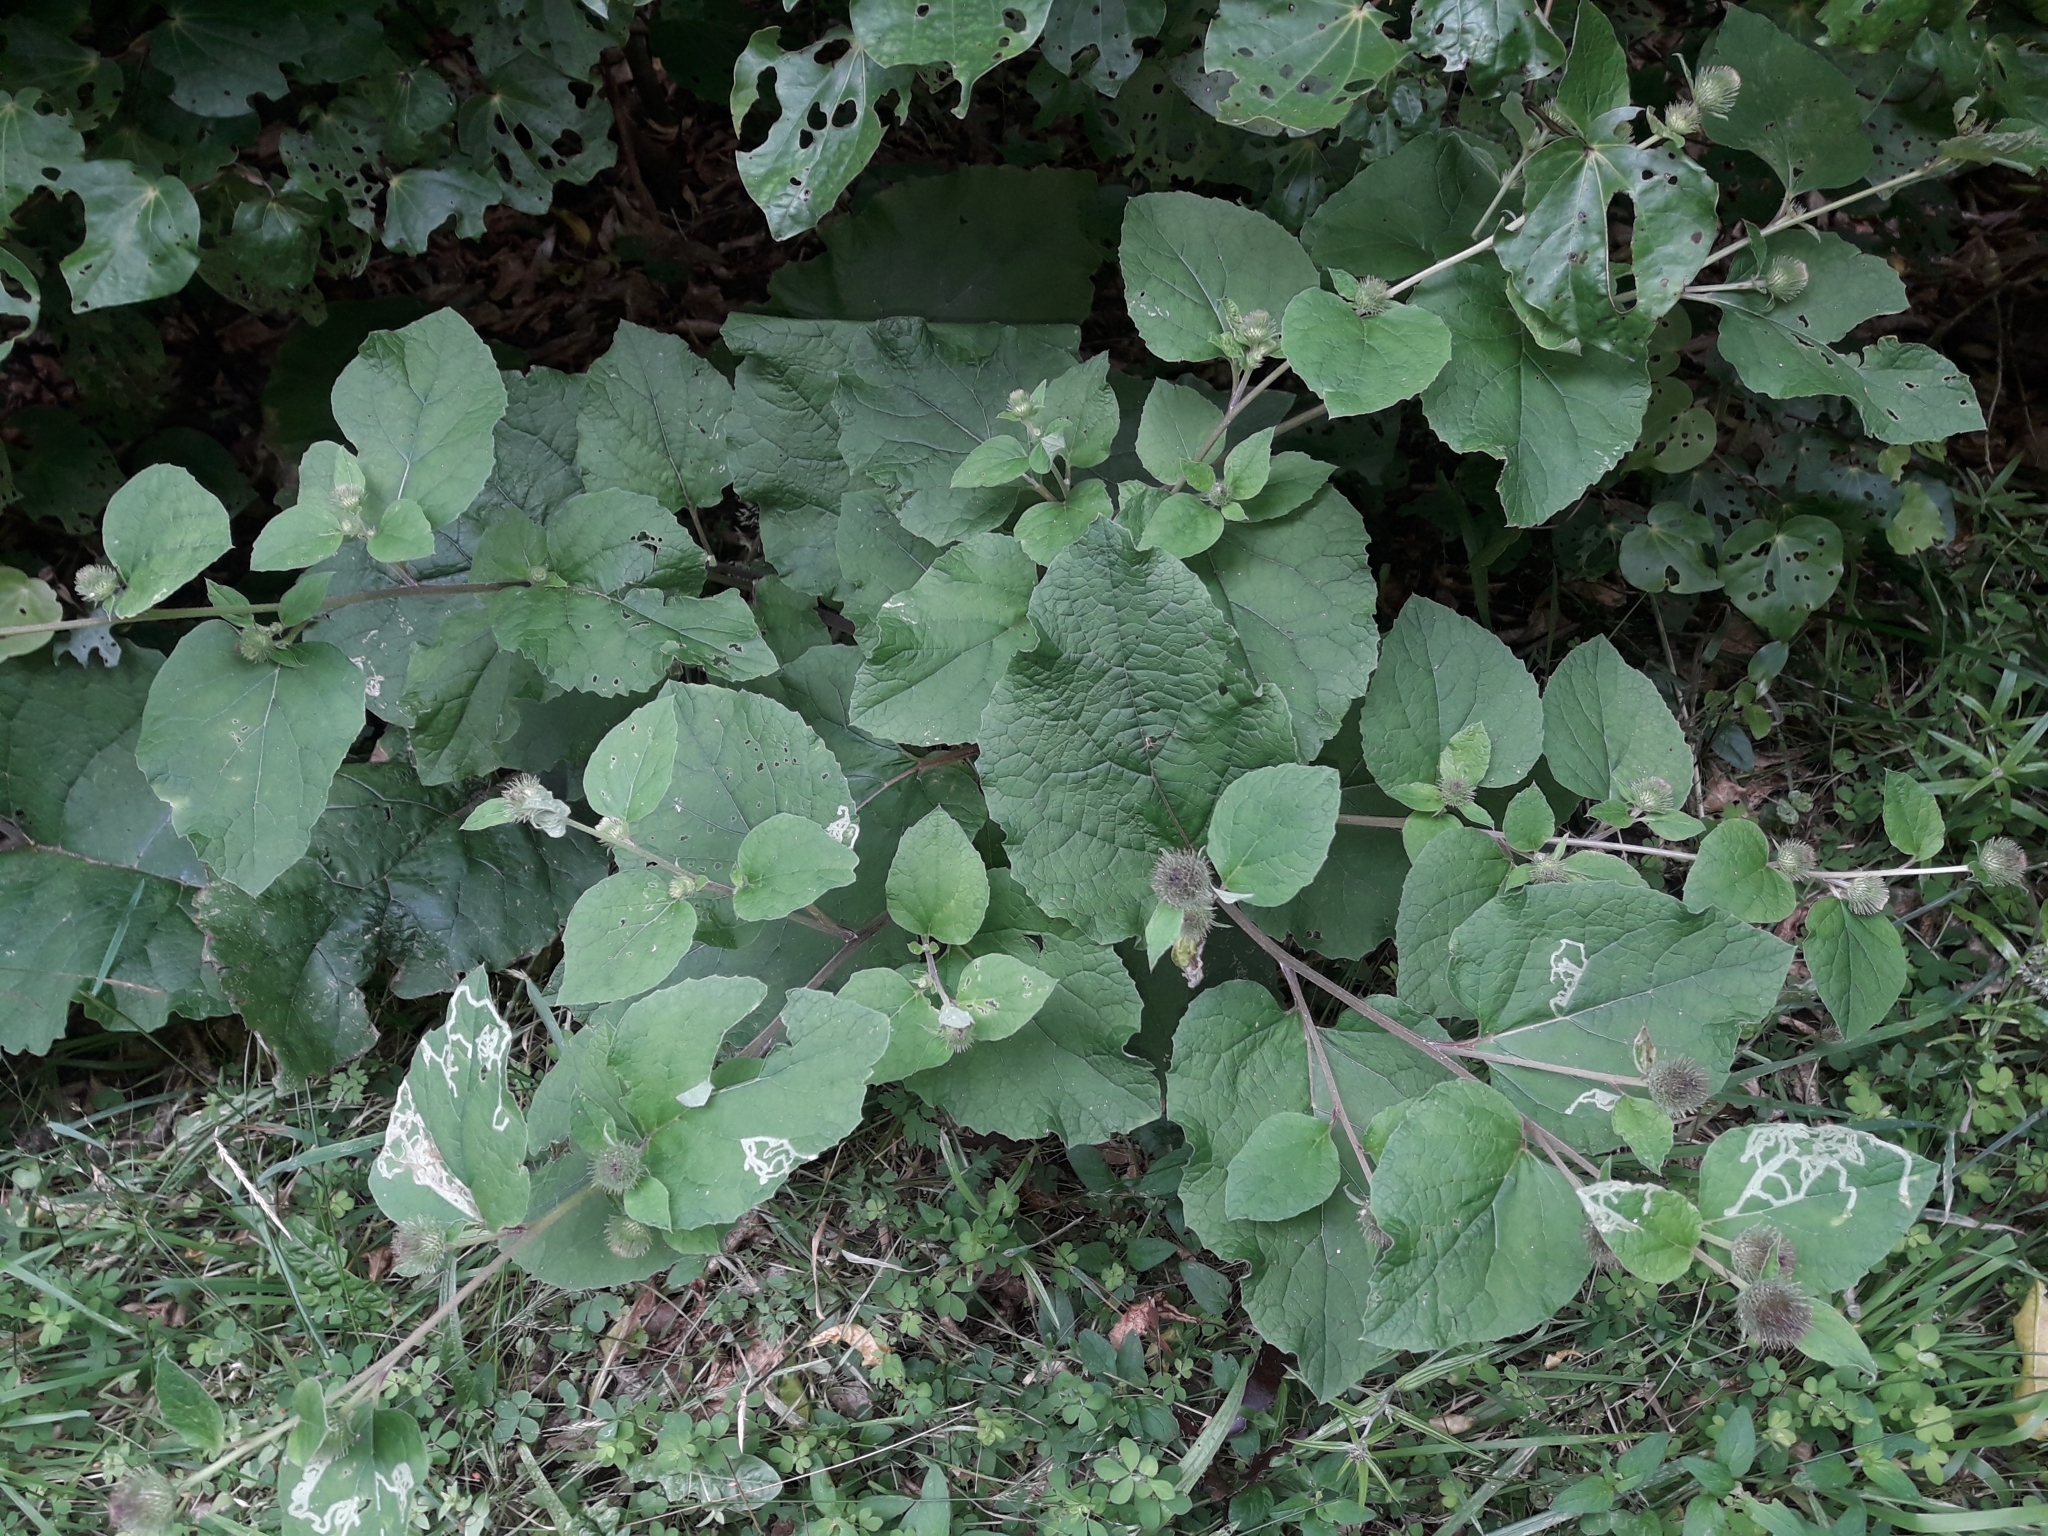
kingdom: Plantae
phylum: Tracheophyta
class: Magnoliopsida
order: Asterales
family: Asteraceae
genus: Arctium
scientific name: Arctium minus
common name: Lesser burdock
